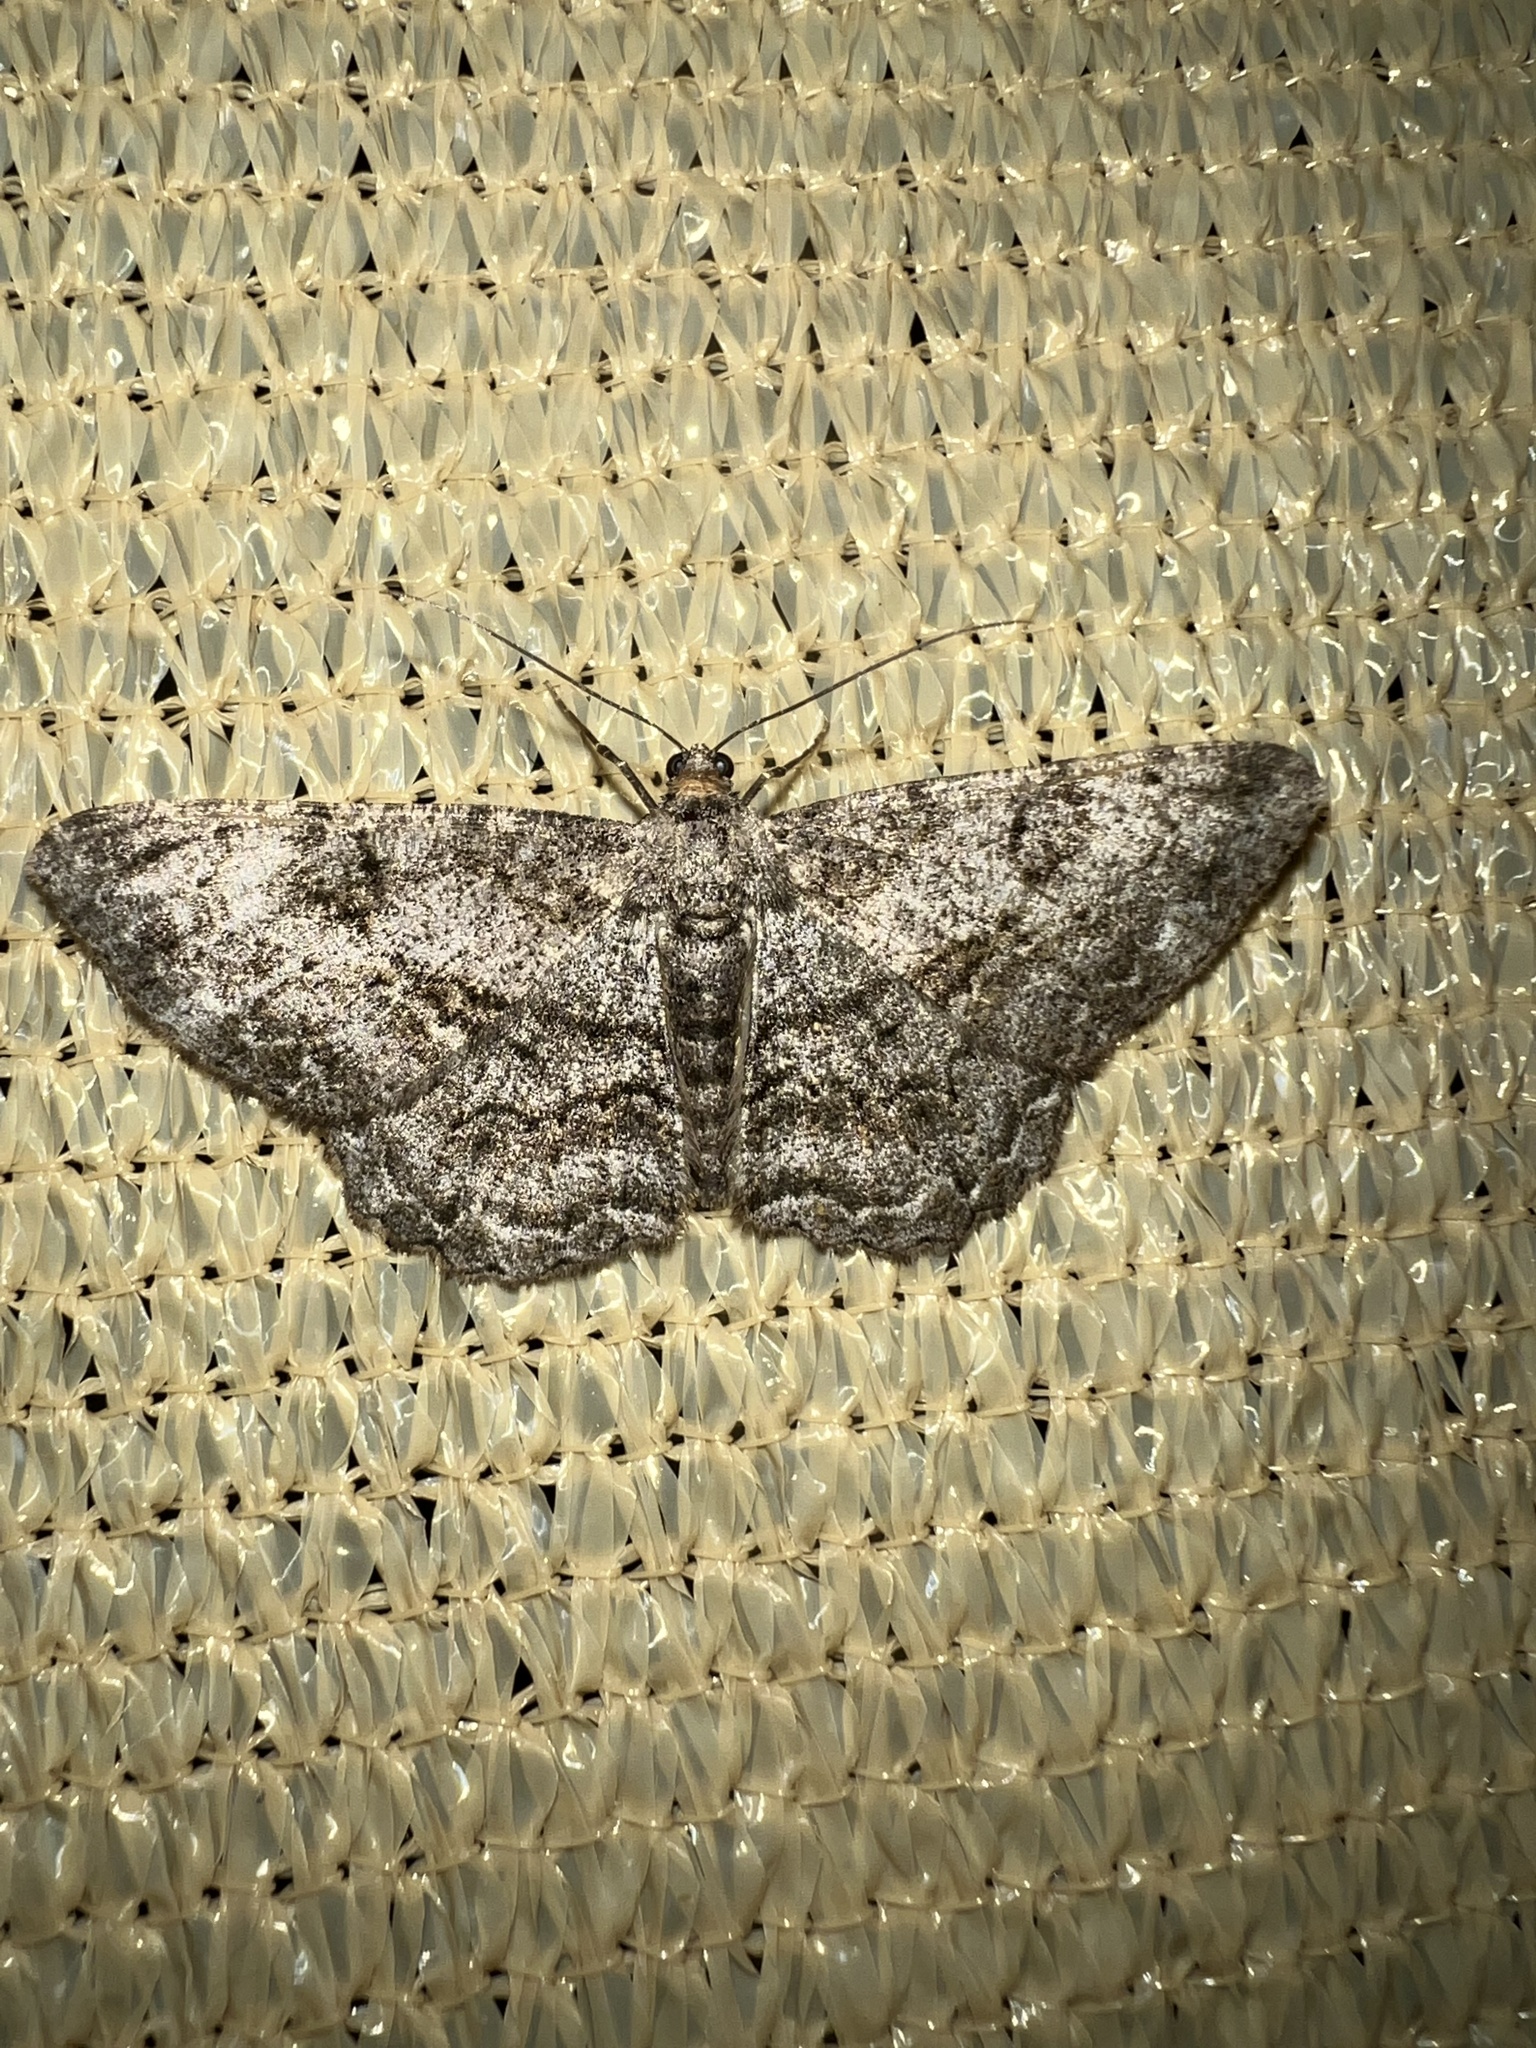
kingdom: Animalia
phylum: Arthropoda
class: Insecta
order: Lepidoptera
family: Geometridae
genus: Peribatodes
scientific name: Peribatodes rhomboidaria
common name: Willow beauty
